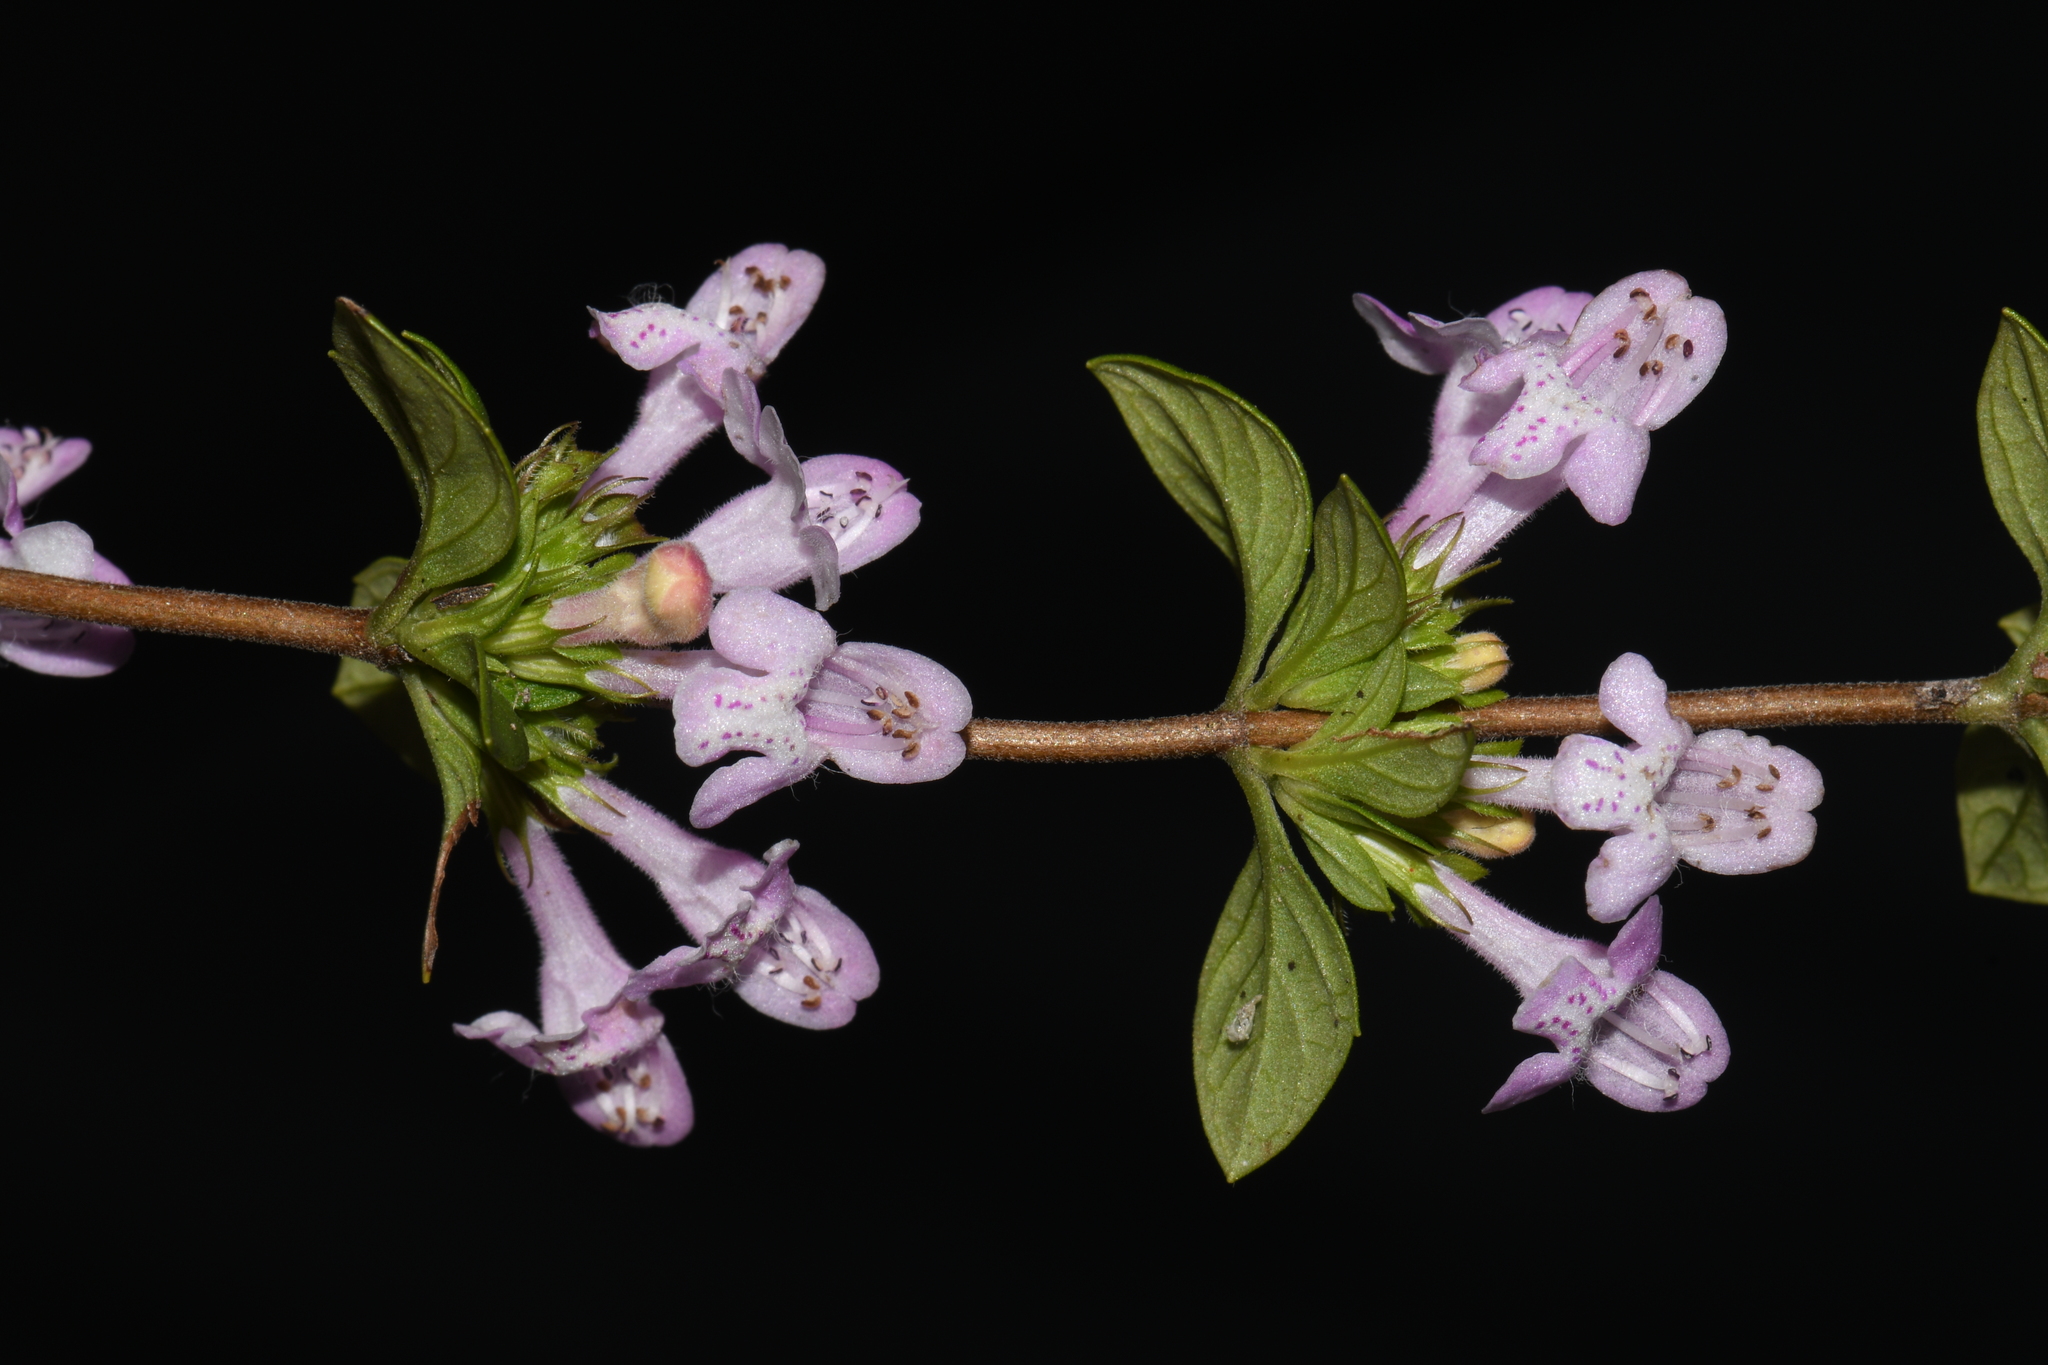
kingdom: Plantae
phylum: Tracheophyta
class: Magnoliopsida
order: Lamiales
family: Lamiaceae
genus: Clinopodium
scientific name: Clinopodium talladeganum
